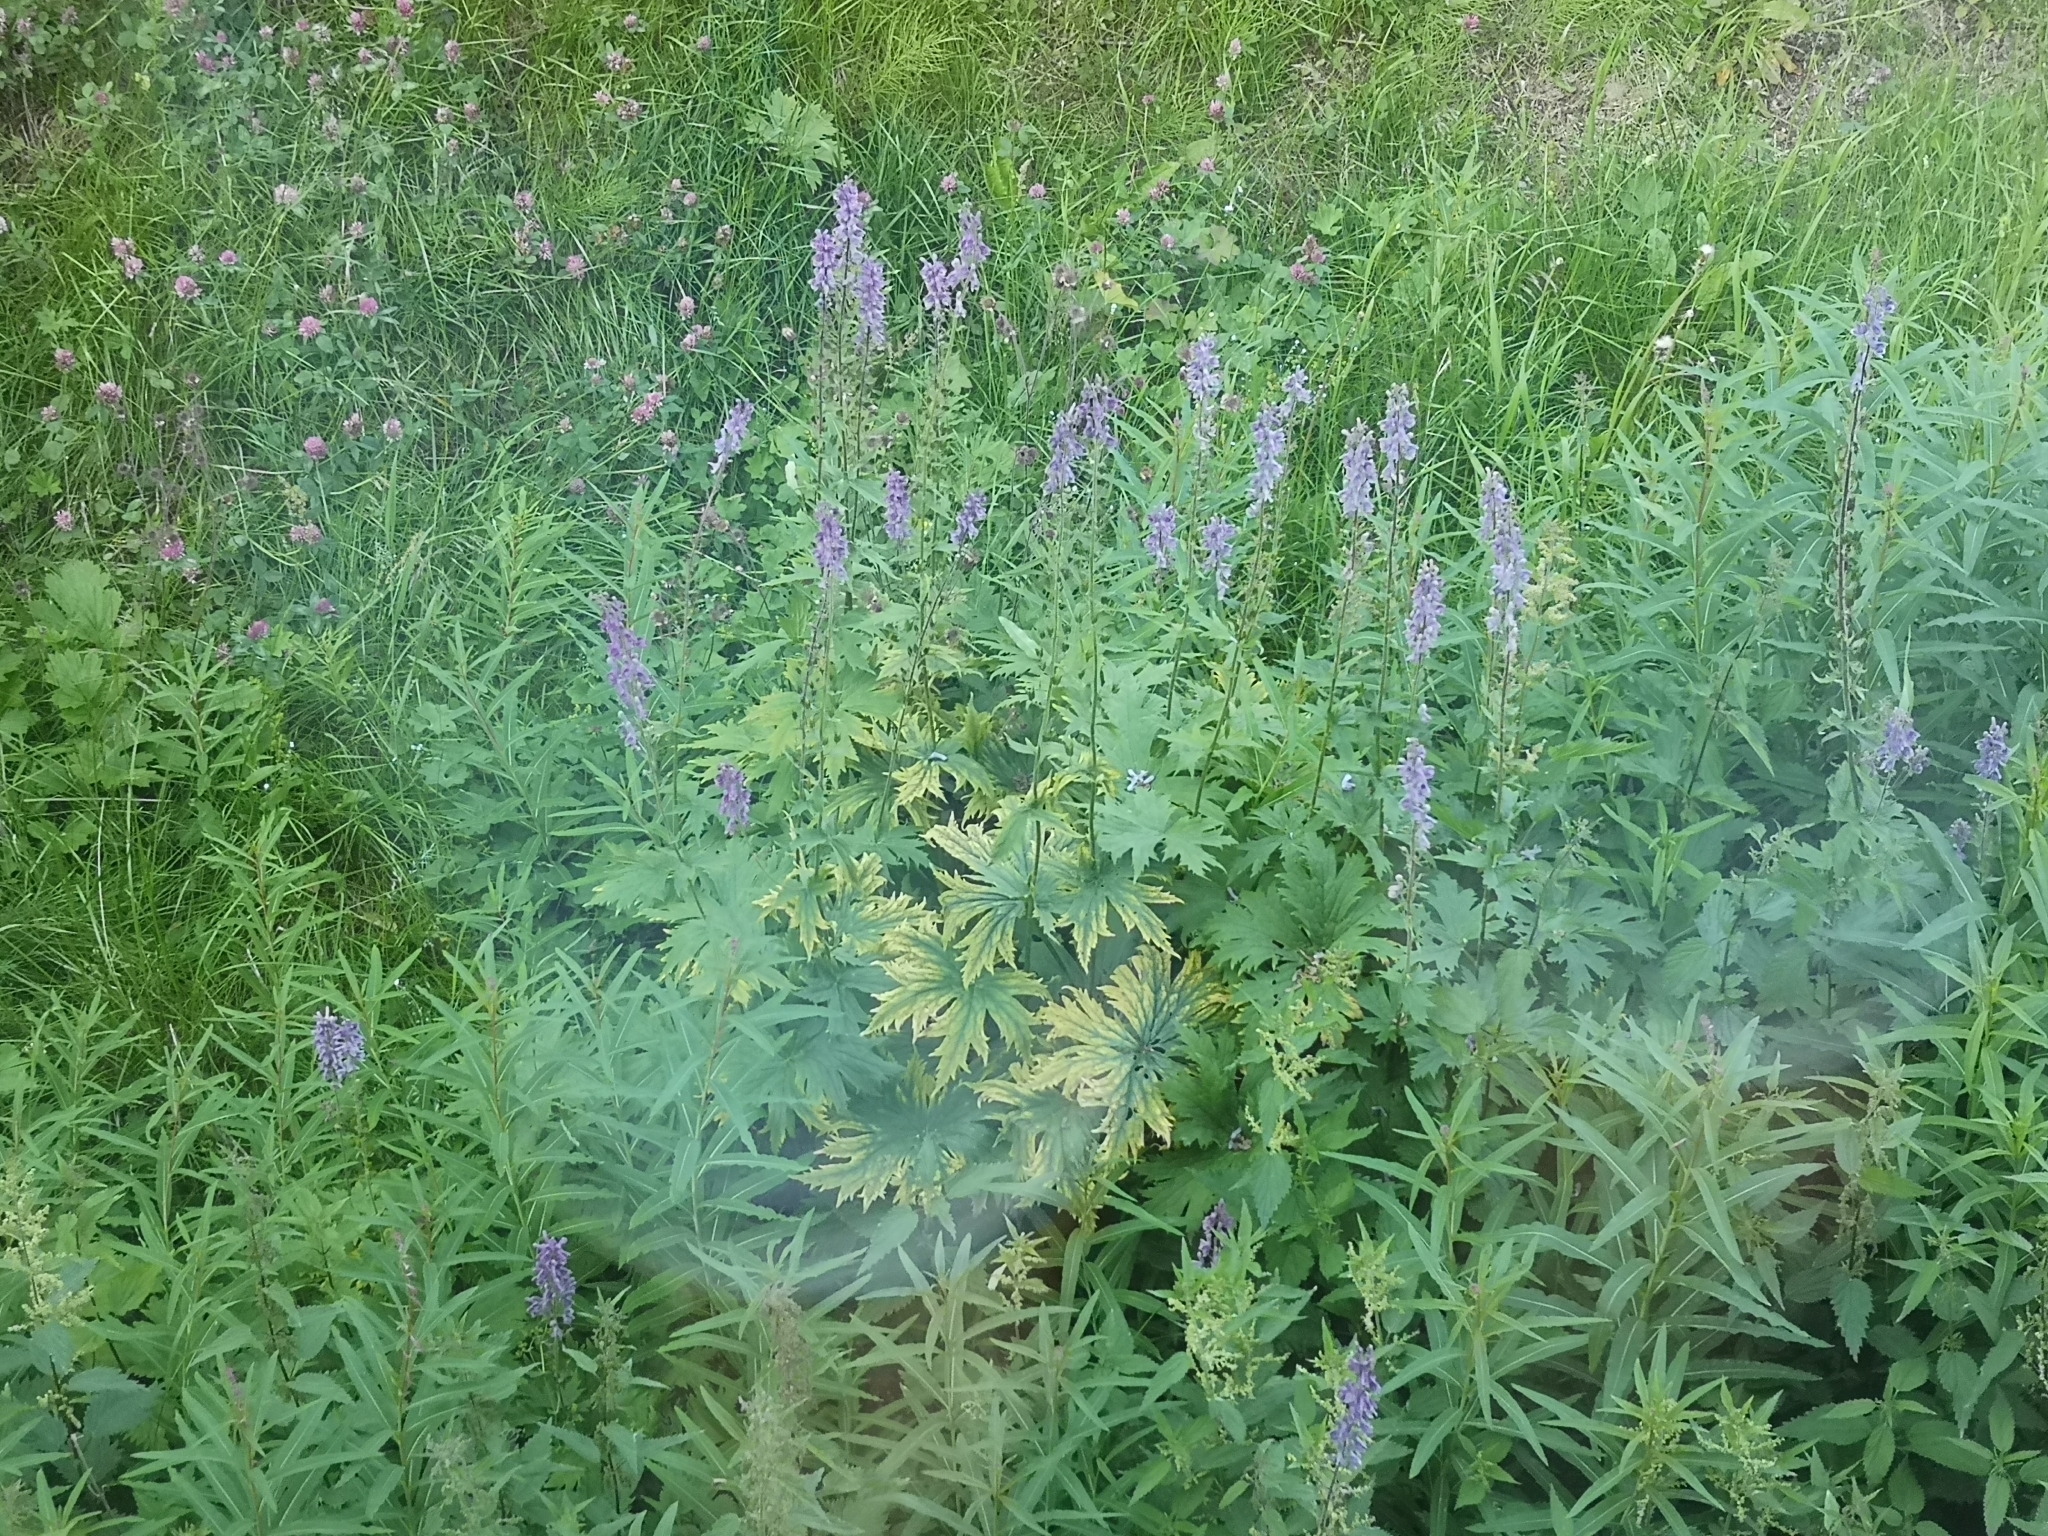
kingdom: Plantae
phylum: Tracheophyta
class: Magnoliopsida
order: Ranunculales
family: Ranunculaceae
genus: Aconitum
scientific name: Aconitum septentrionale
